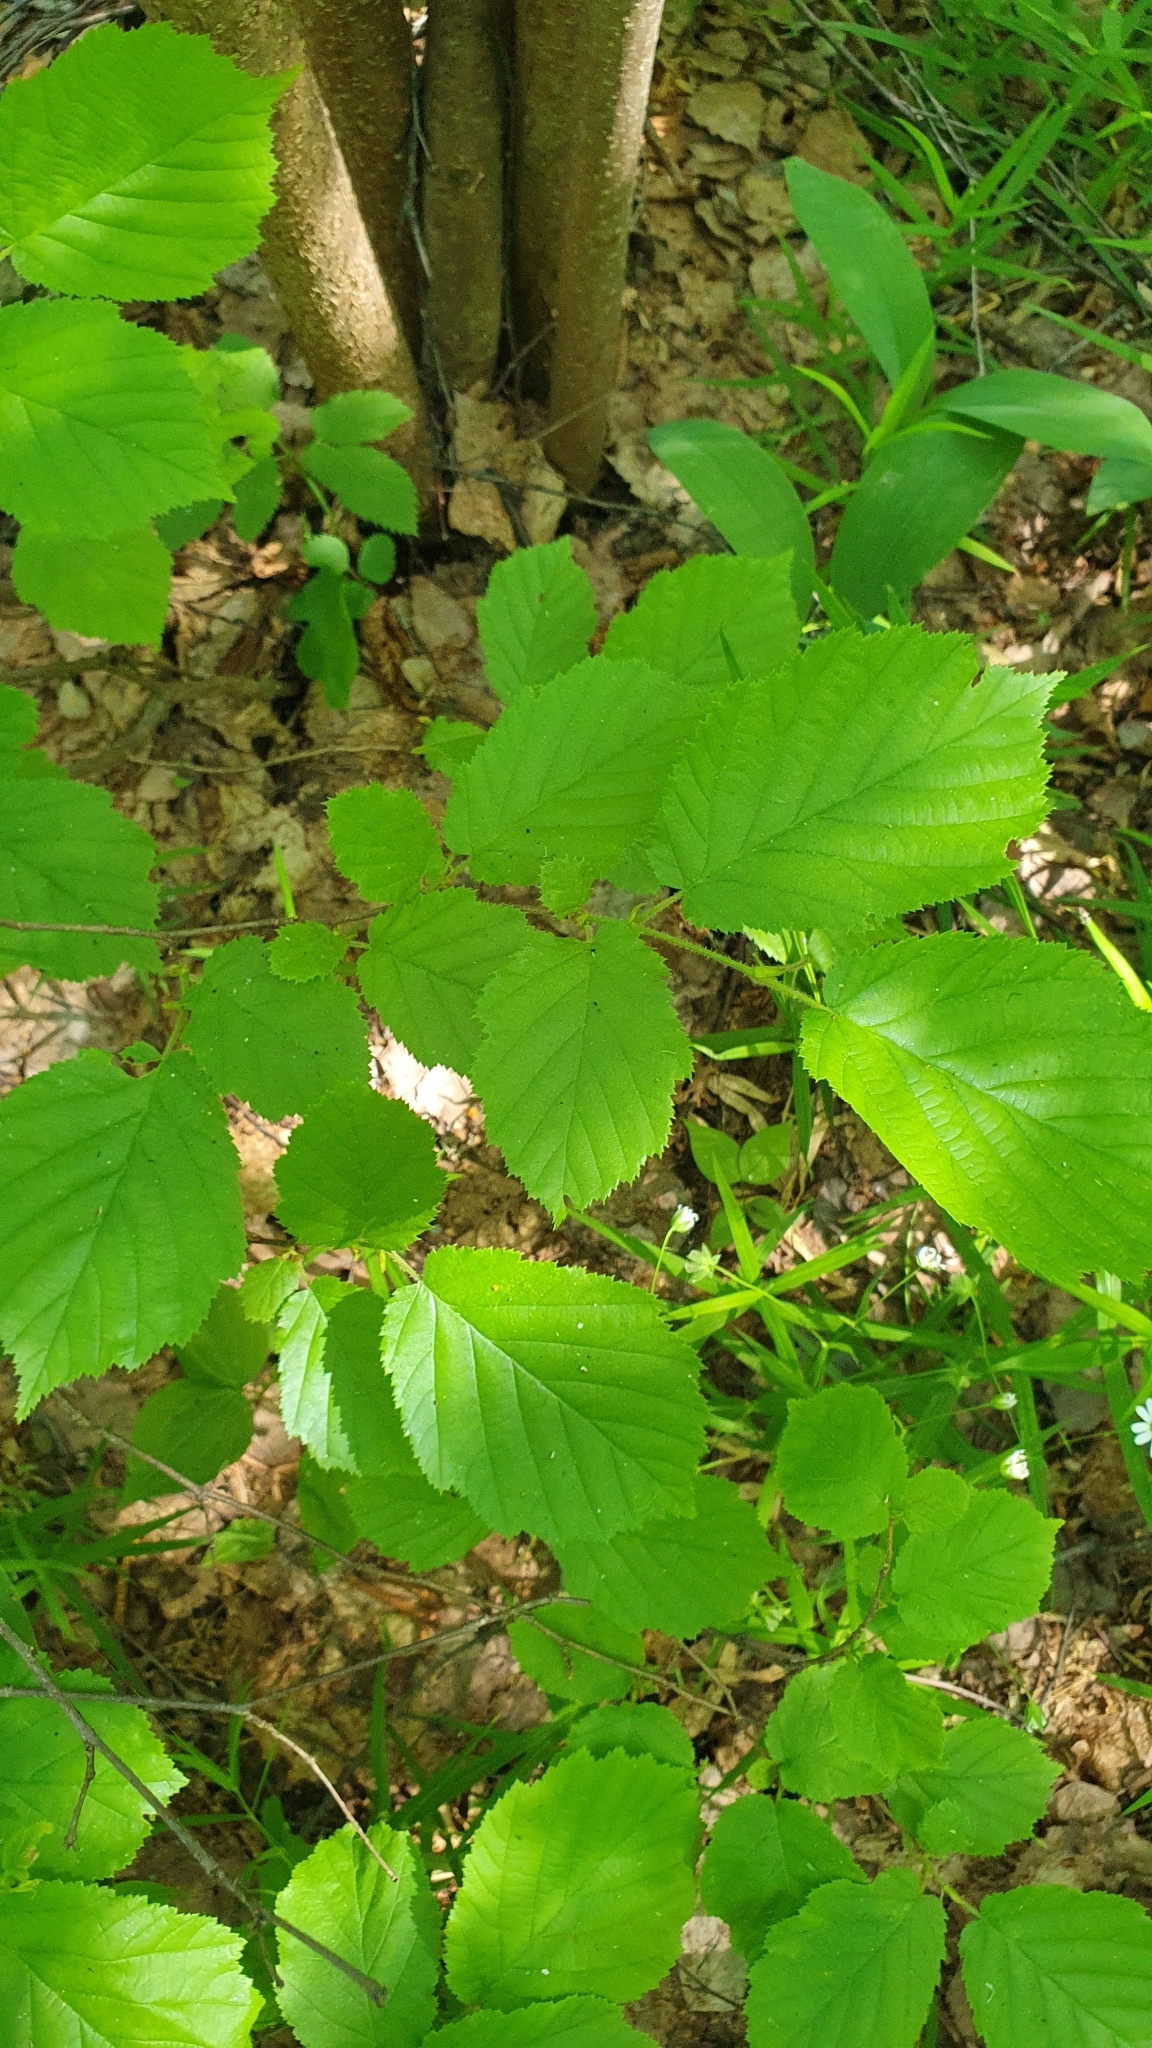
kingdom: Plantae
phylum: Tracheophyta
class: Magnoliopsida
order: Fagales
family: Betulaceae
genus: Corylus
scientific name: Corylus avellana
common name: European hazel
